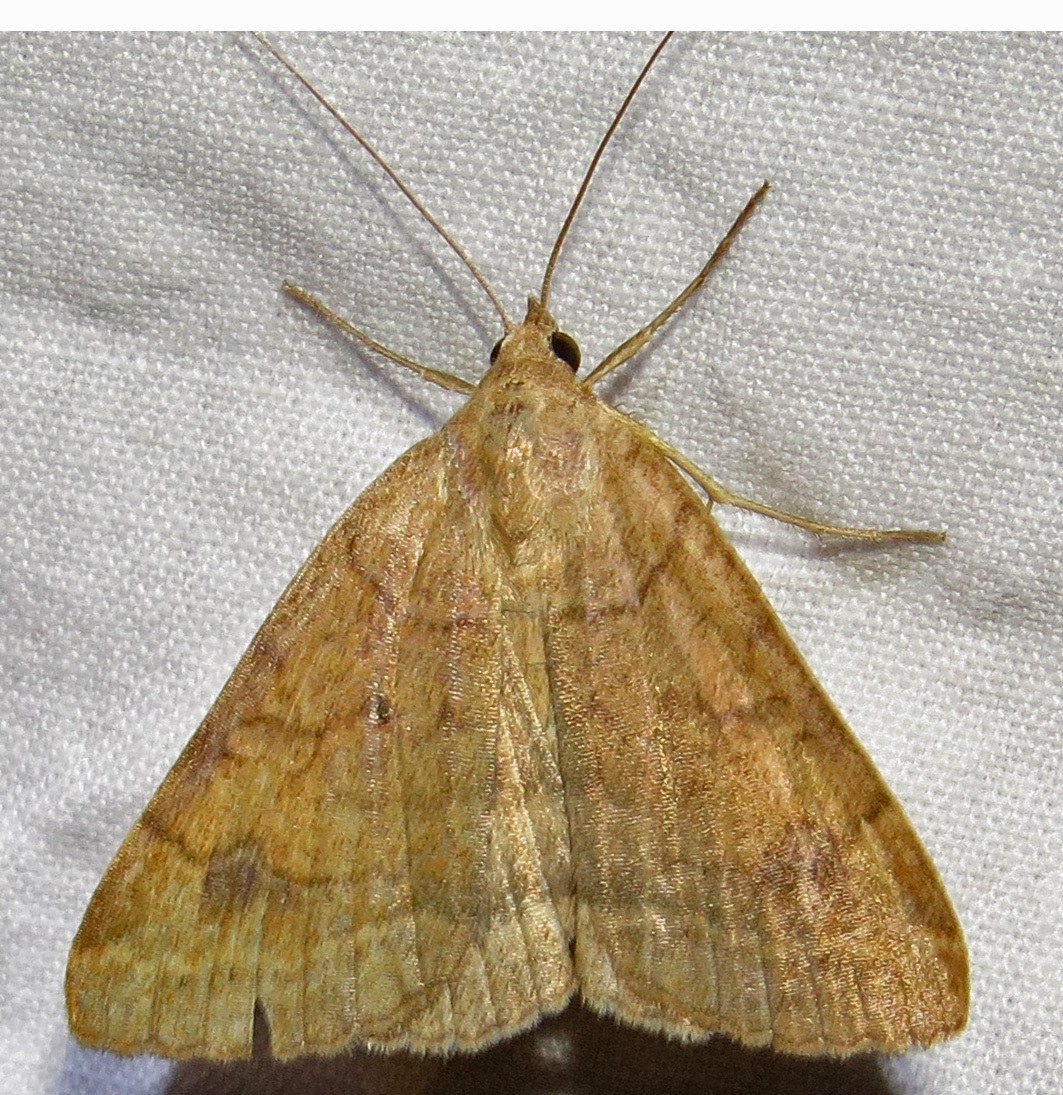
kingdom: Animalia
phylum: Arthropoda
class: Insecta
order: Lepidoptera
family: Erebidae
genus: Caenurgia
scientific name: Caenurgia chloropha
